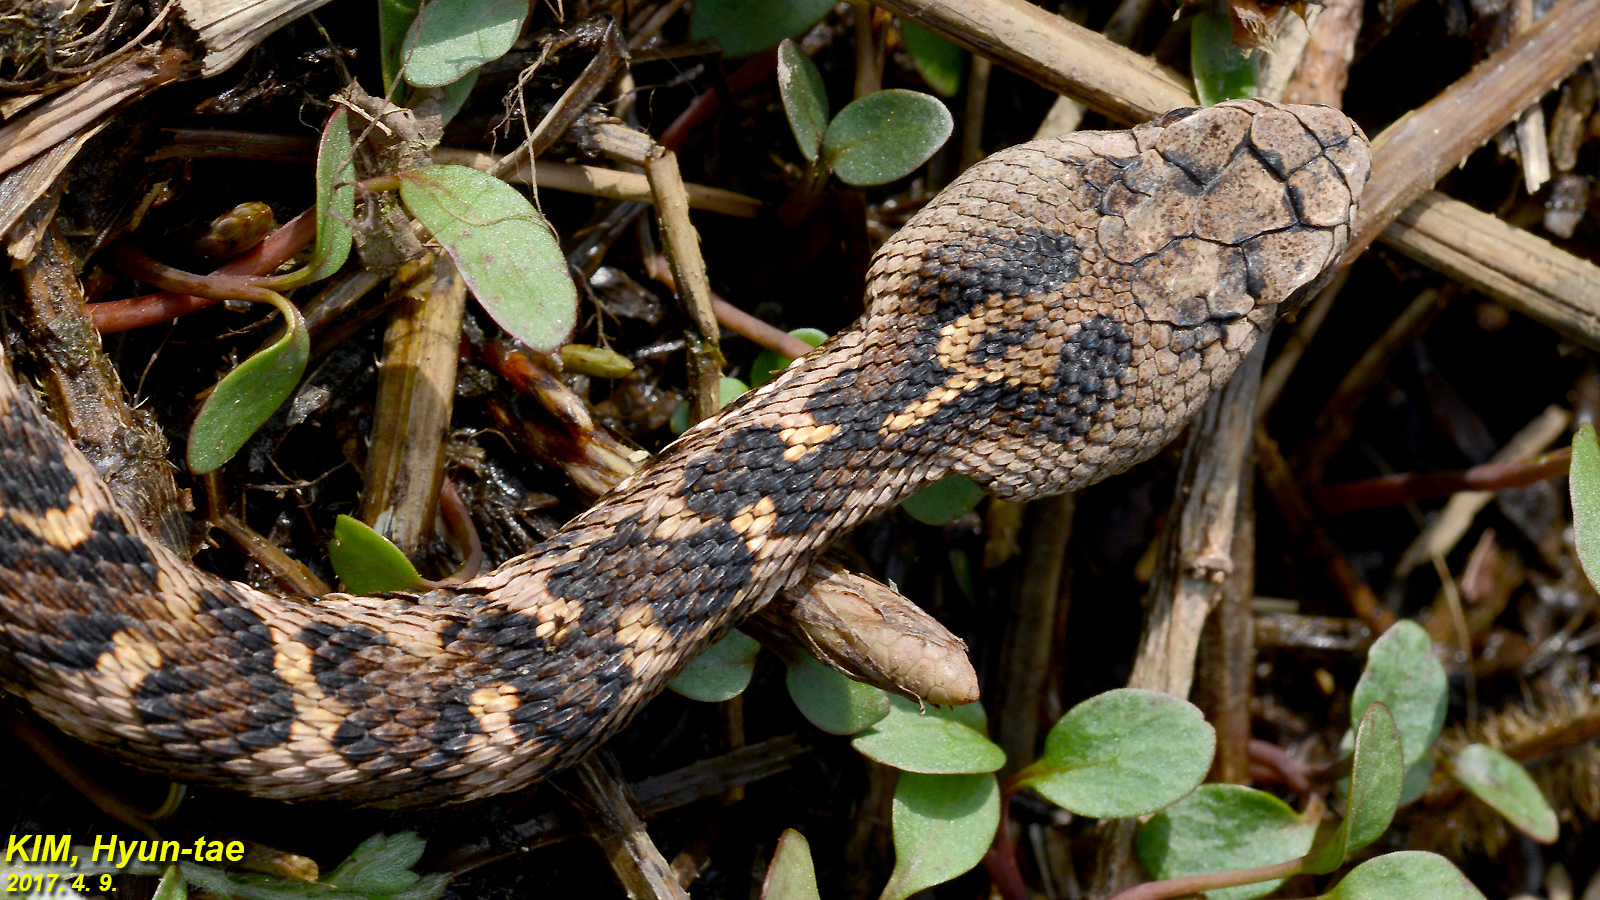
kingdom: Animalia
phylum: Chordata
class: Squamata
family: Viperidae
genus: Gloydius
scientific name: Gloydius intermedius
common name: Central asian pit viper
